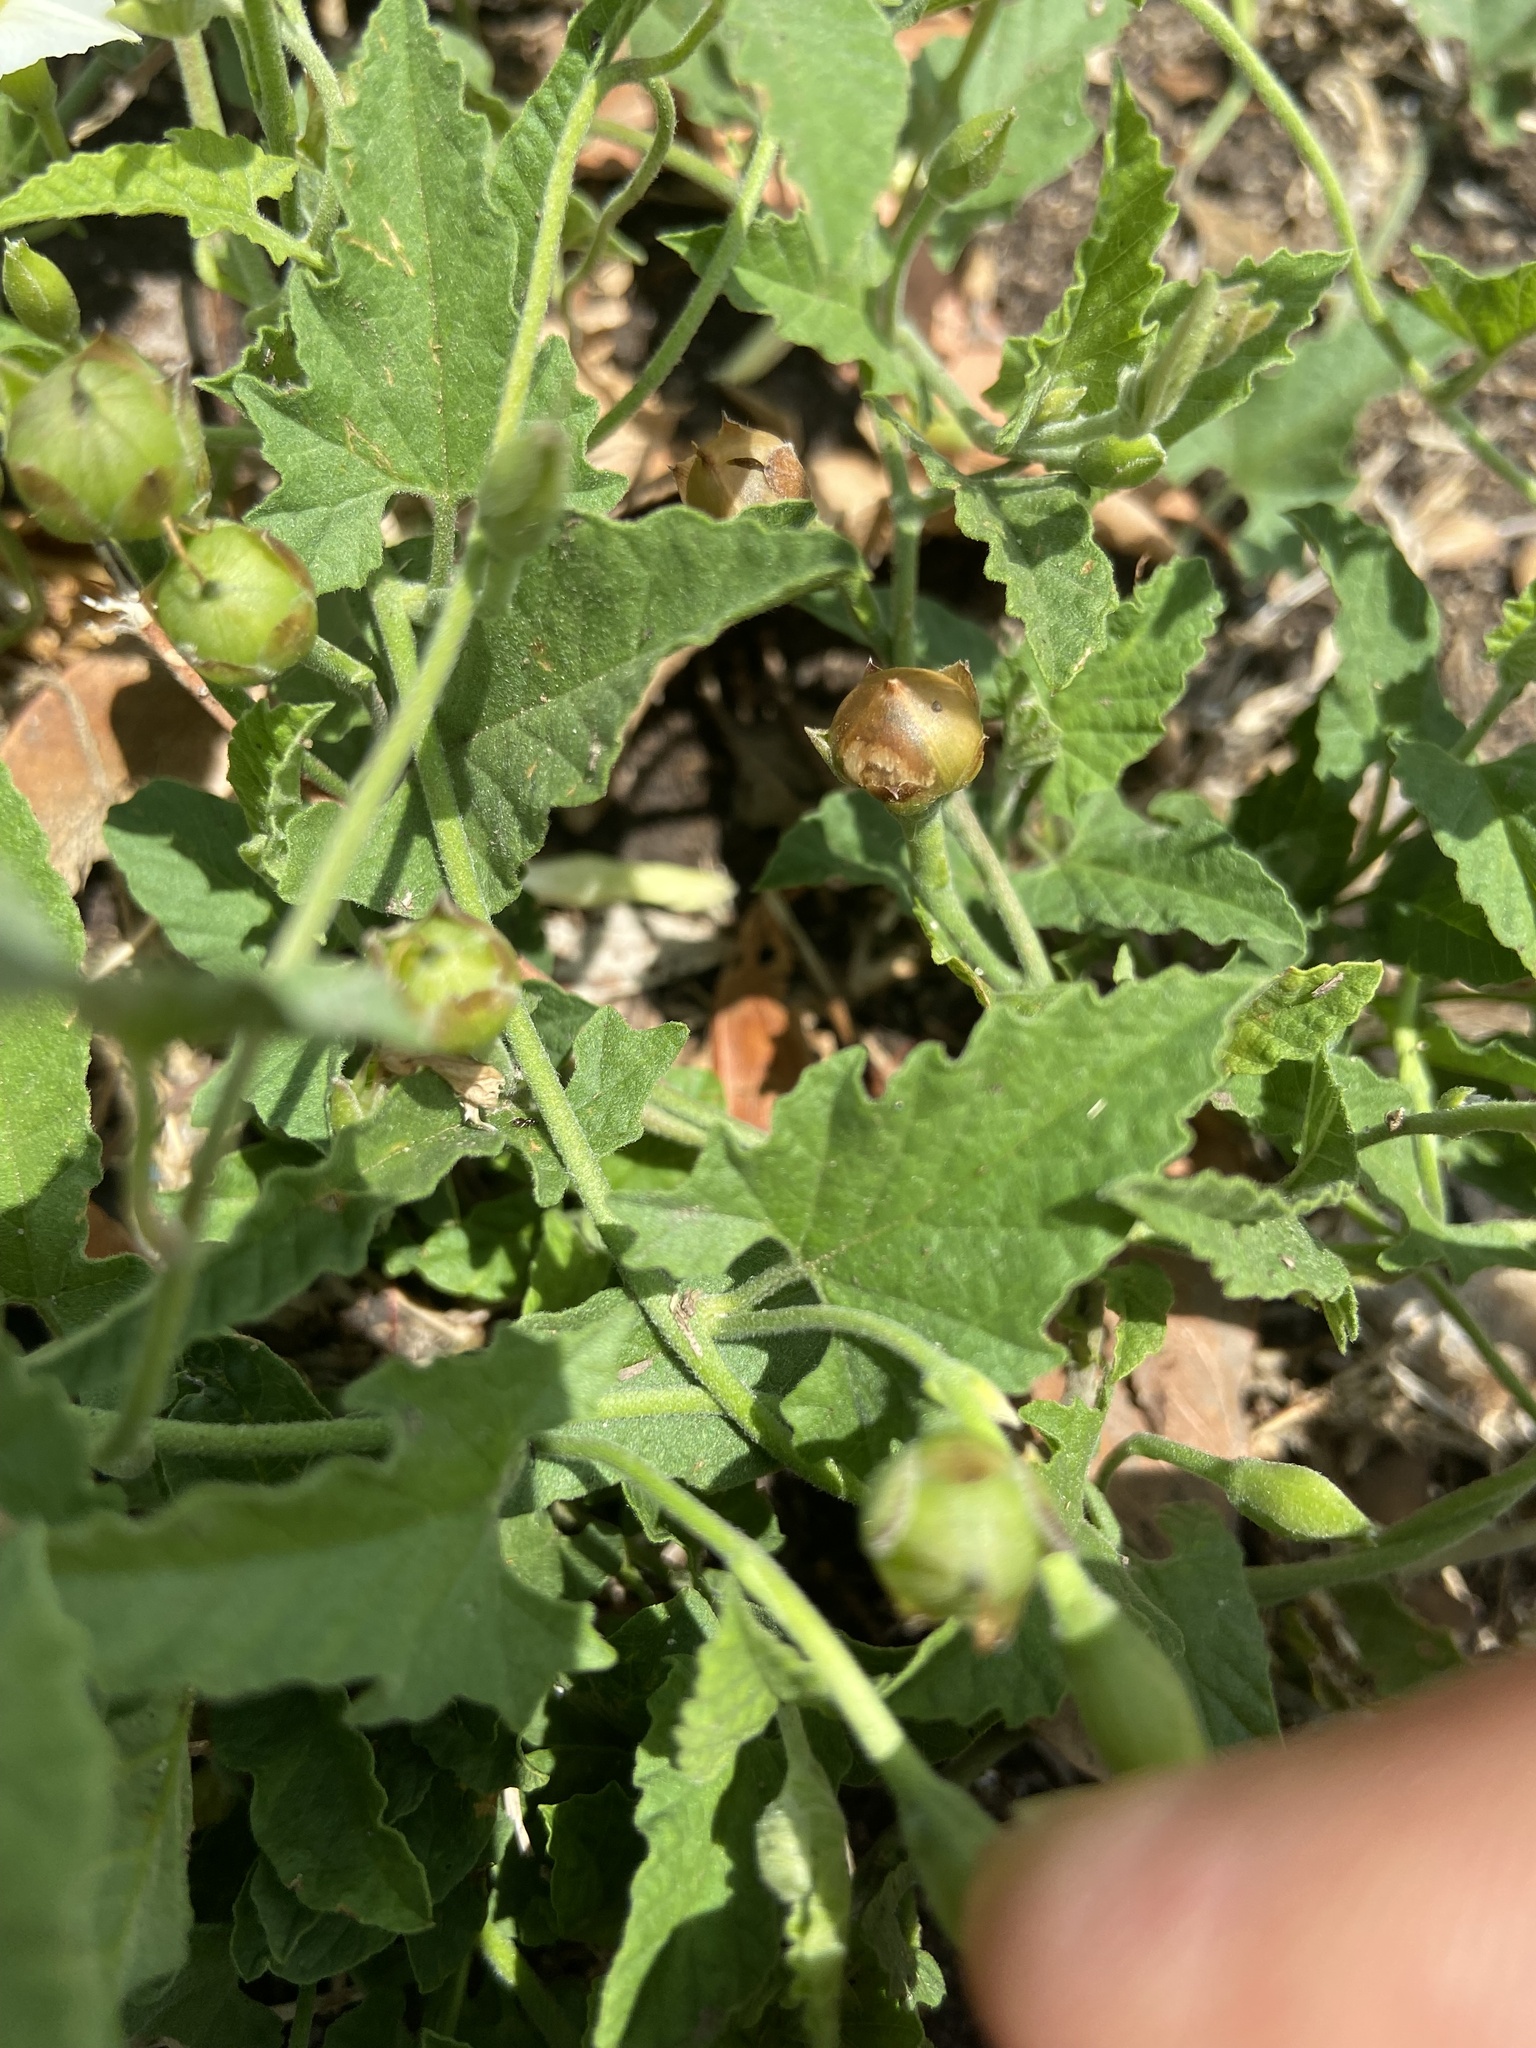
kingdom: Plantae
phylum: Tracheophyta
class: Magnoliopsida
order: Solanales
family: Convolvulaceae
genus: Convolvulus
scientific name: Convolvulus crenatifolius
